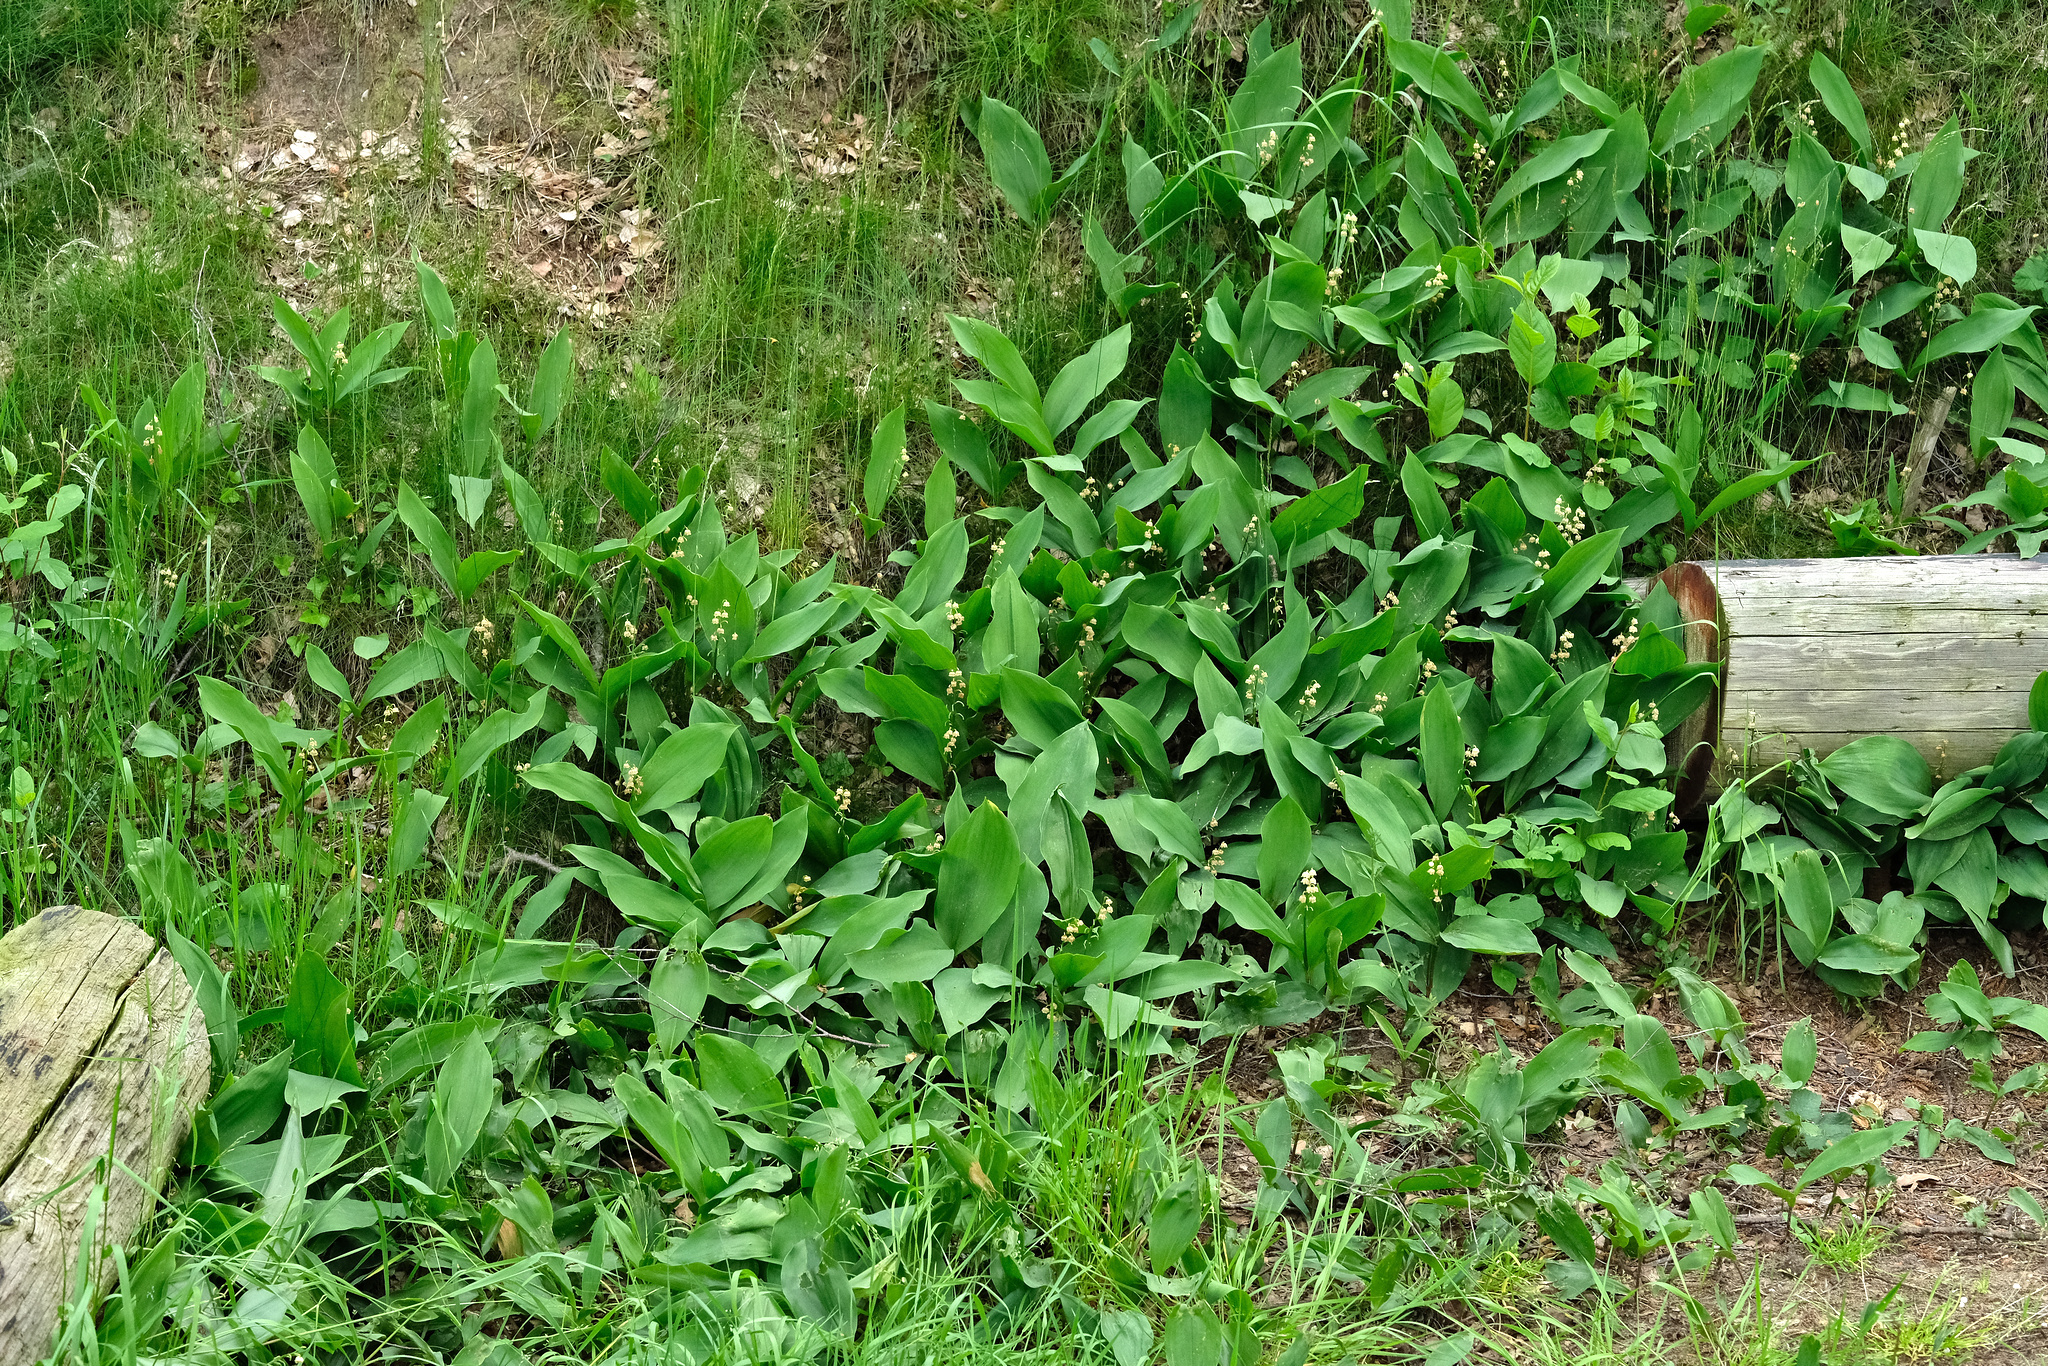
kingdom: Plantae
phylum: Tracheophyta
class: Liliopsida
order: Asparagales
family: Asparagaceae
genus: Convallaria
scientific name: Convallaria majalis
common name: Lily-of-the-valley
